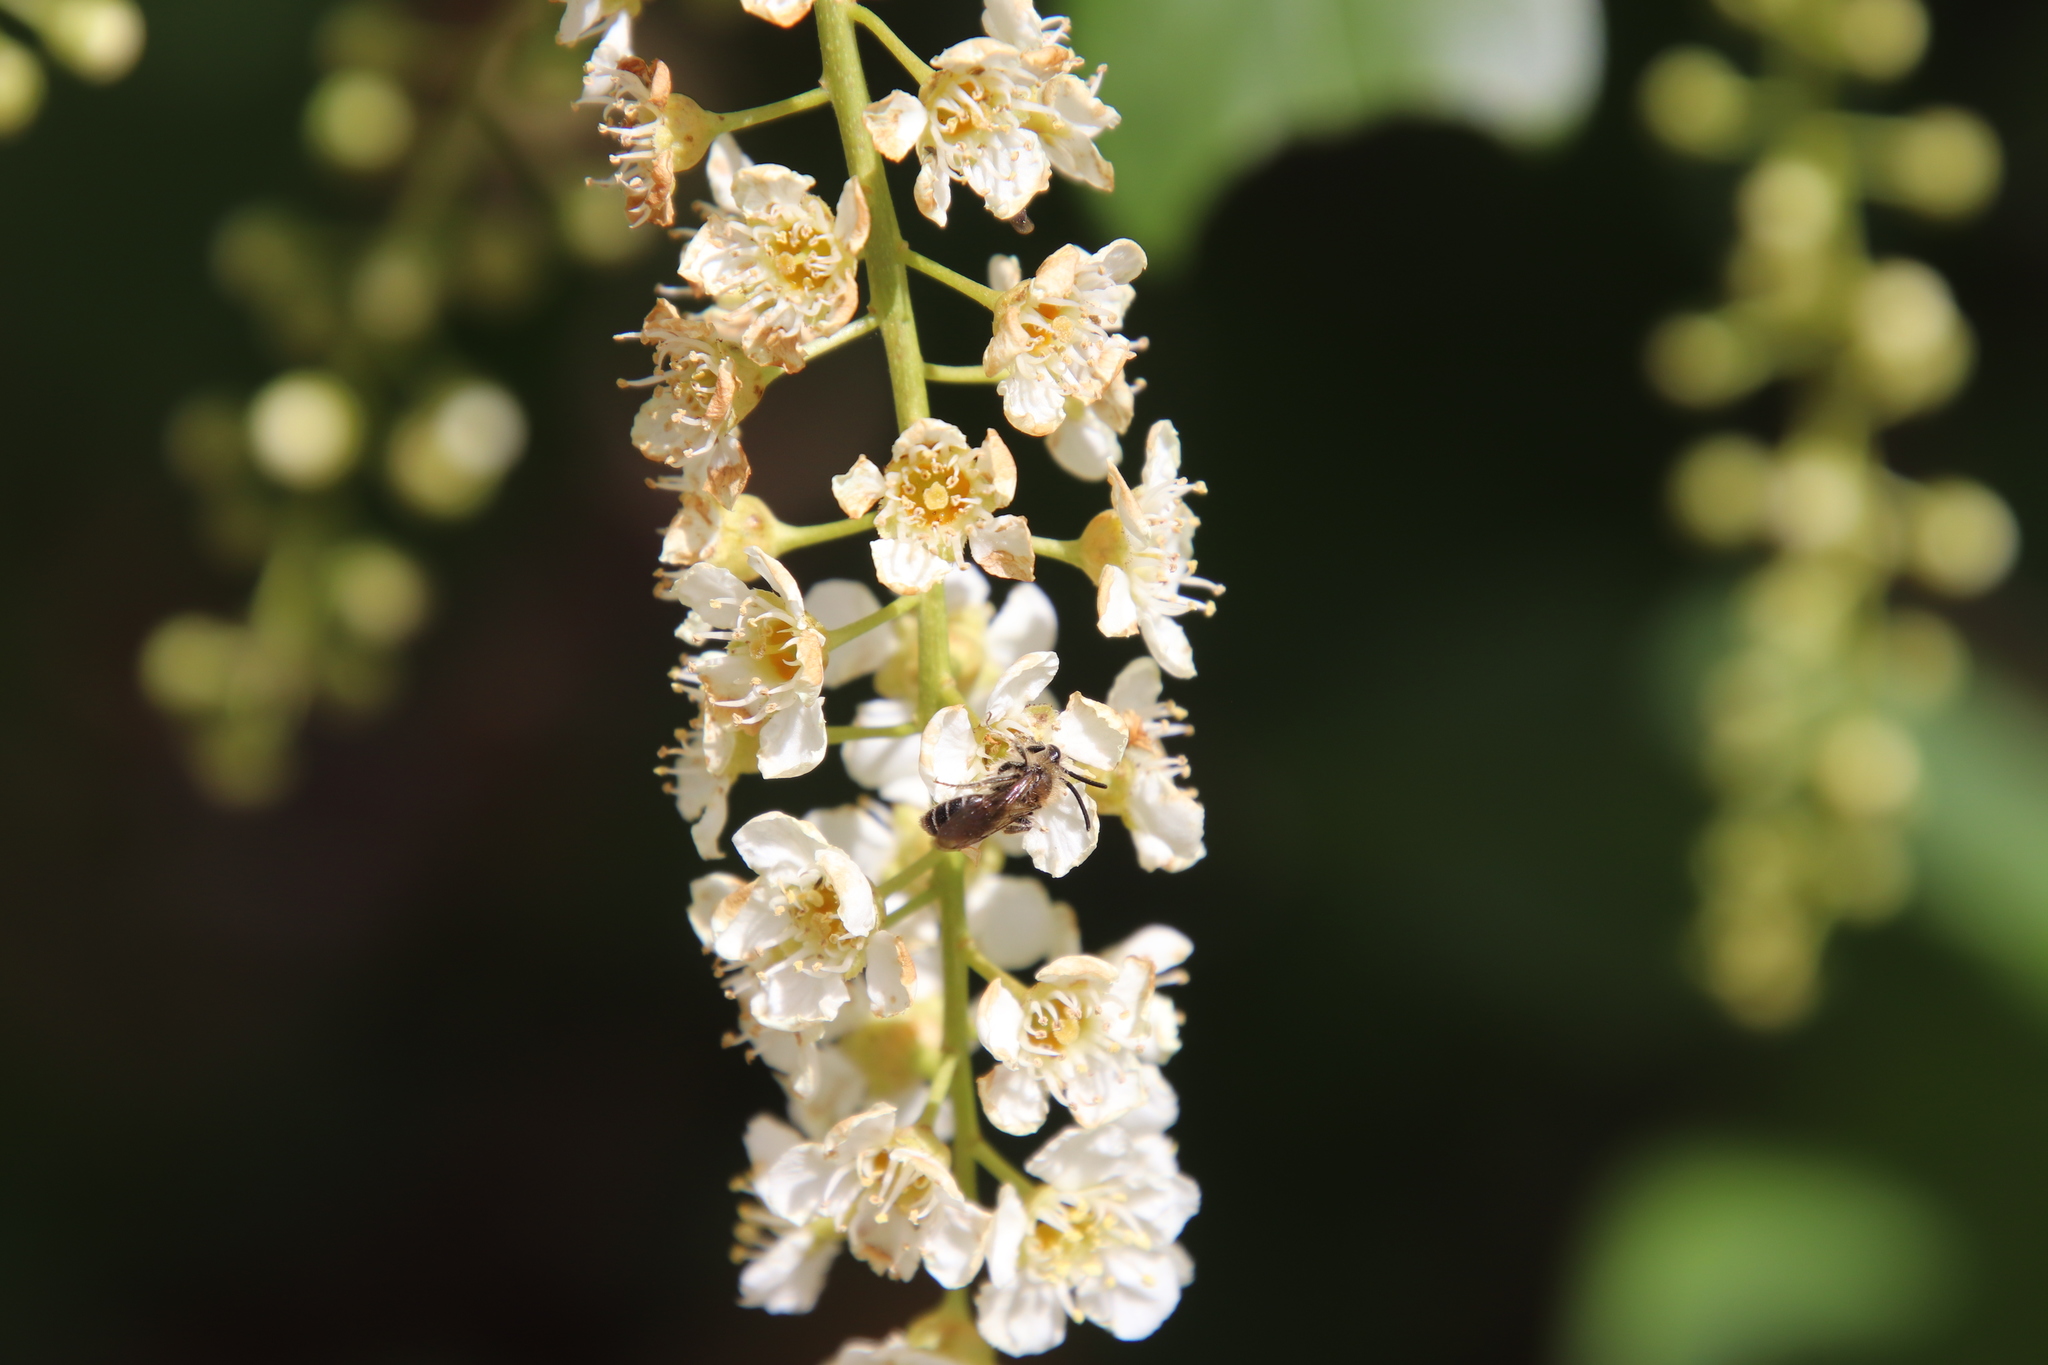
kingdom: Plantae
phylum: Tracheophyta
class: Magnoliopsida
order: Rosales
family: Rosaceae
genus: Prunus
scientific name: Prunus virginiana
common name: Chokecherry
